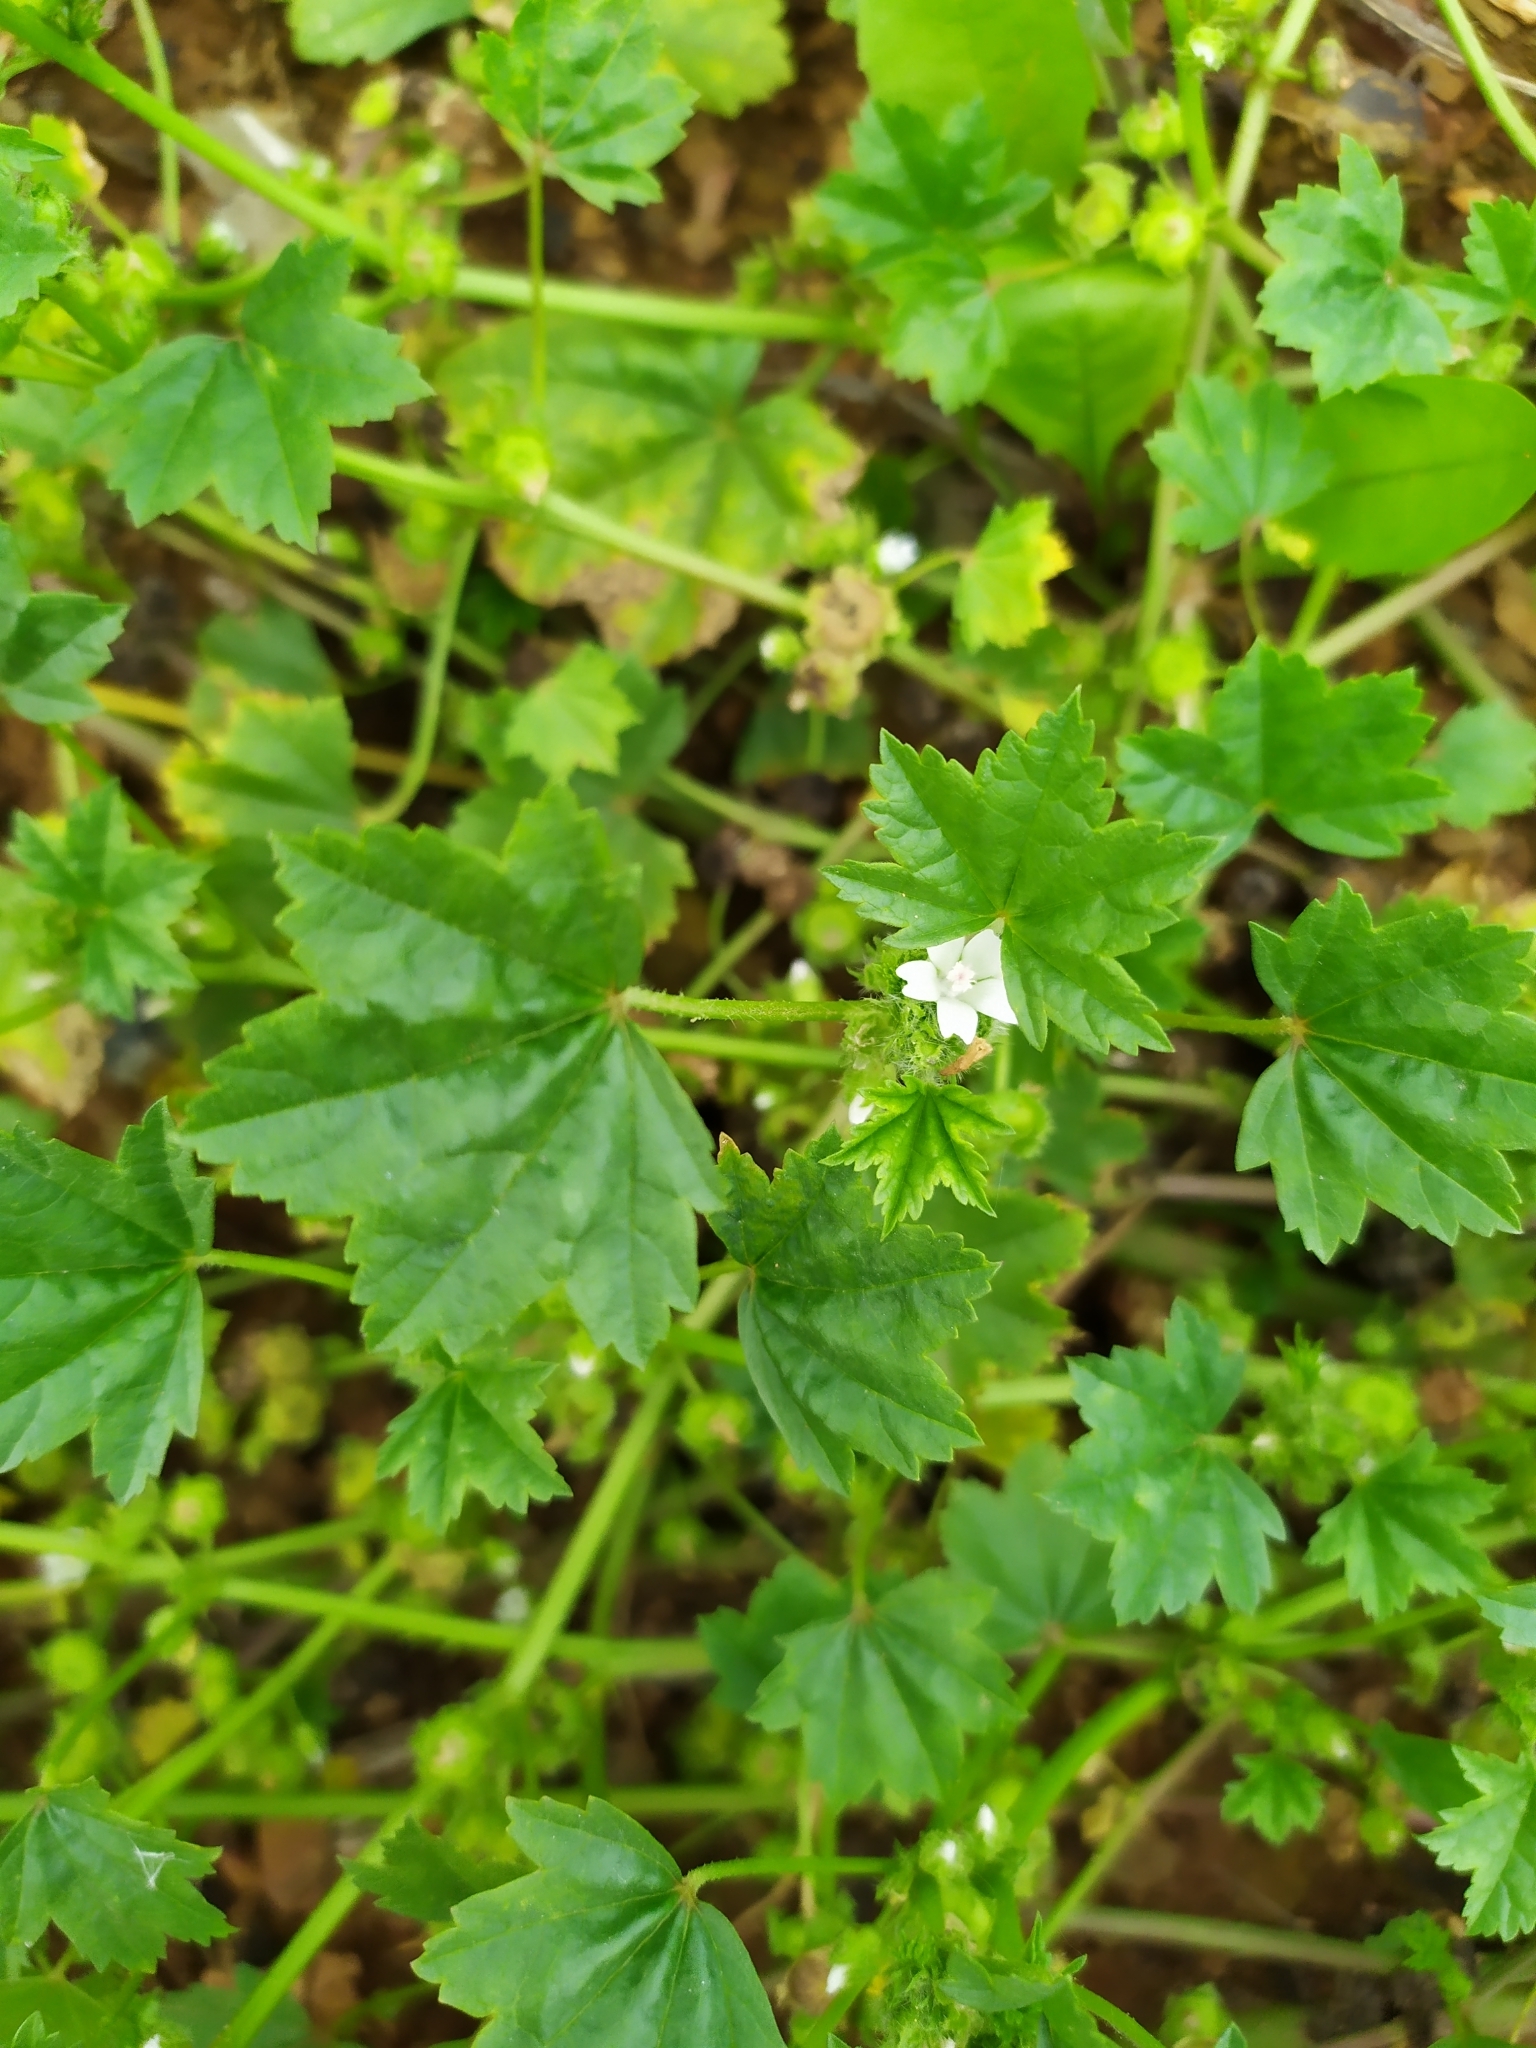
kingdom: Plantae
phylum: Tracheophyta
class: Magnoliopsida
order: Malvales
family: Malvaceae
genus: Malva
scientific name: Malva pusilla
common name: Small mallow
